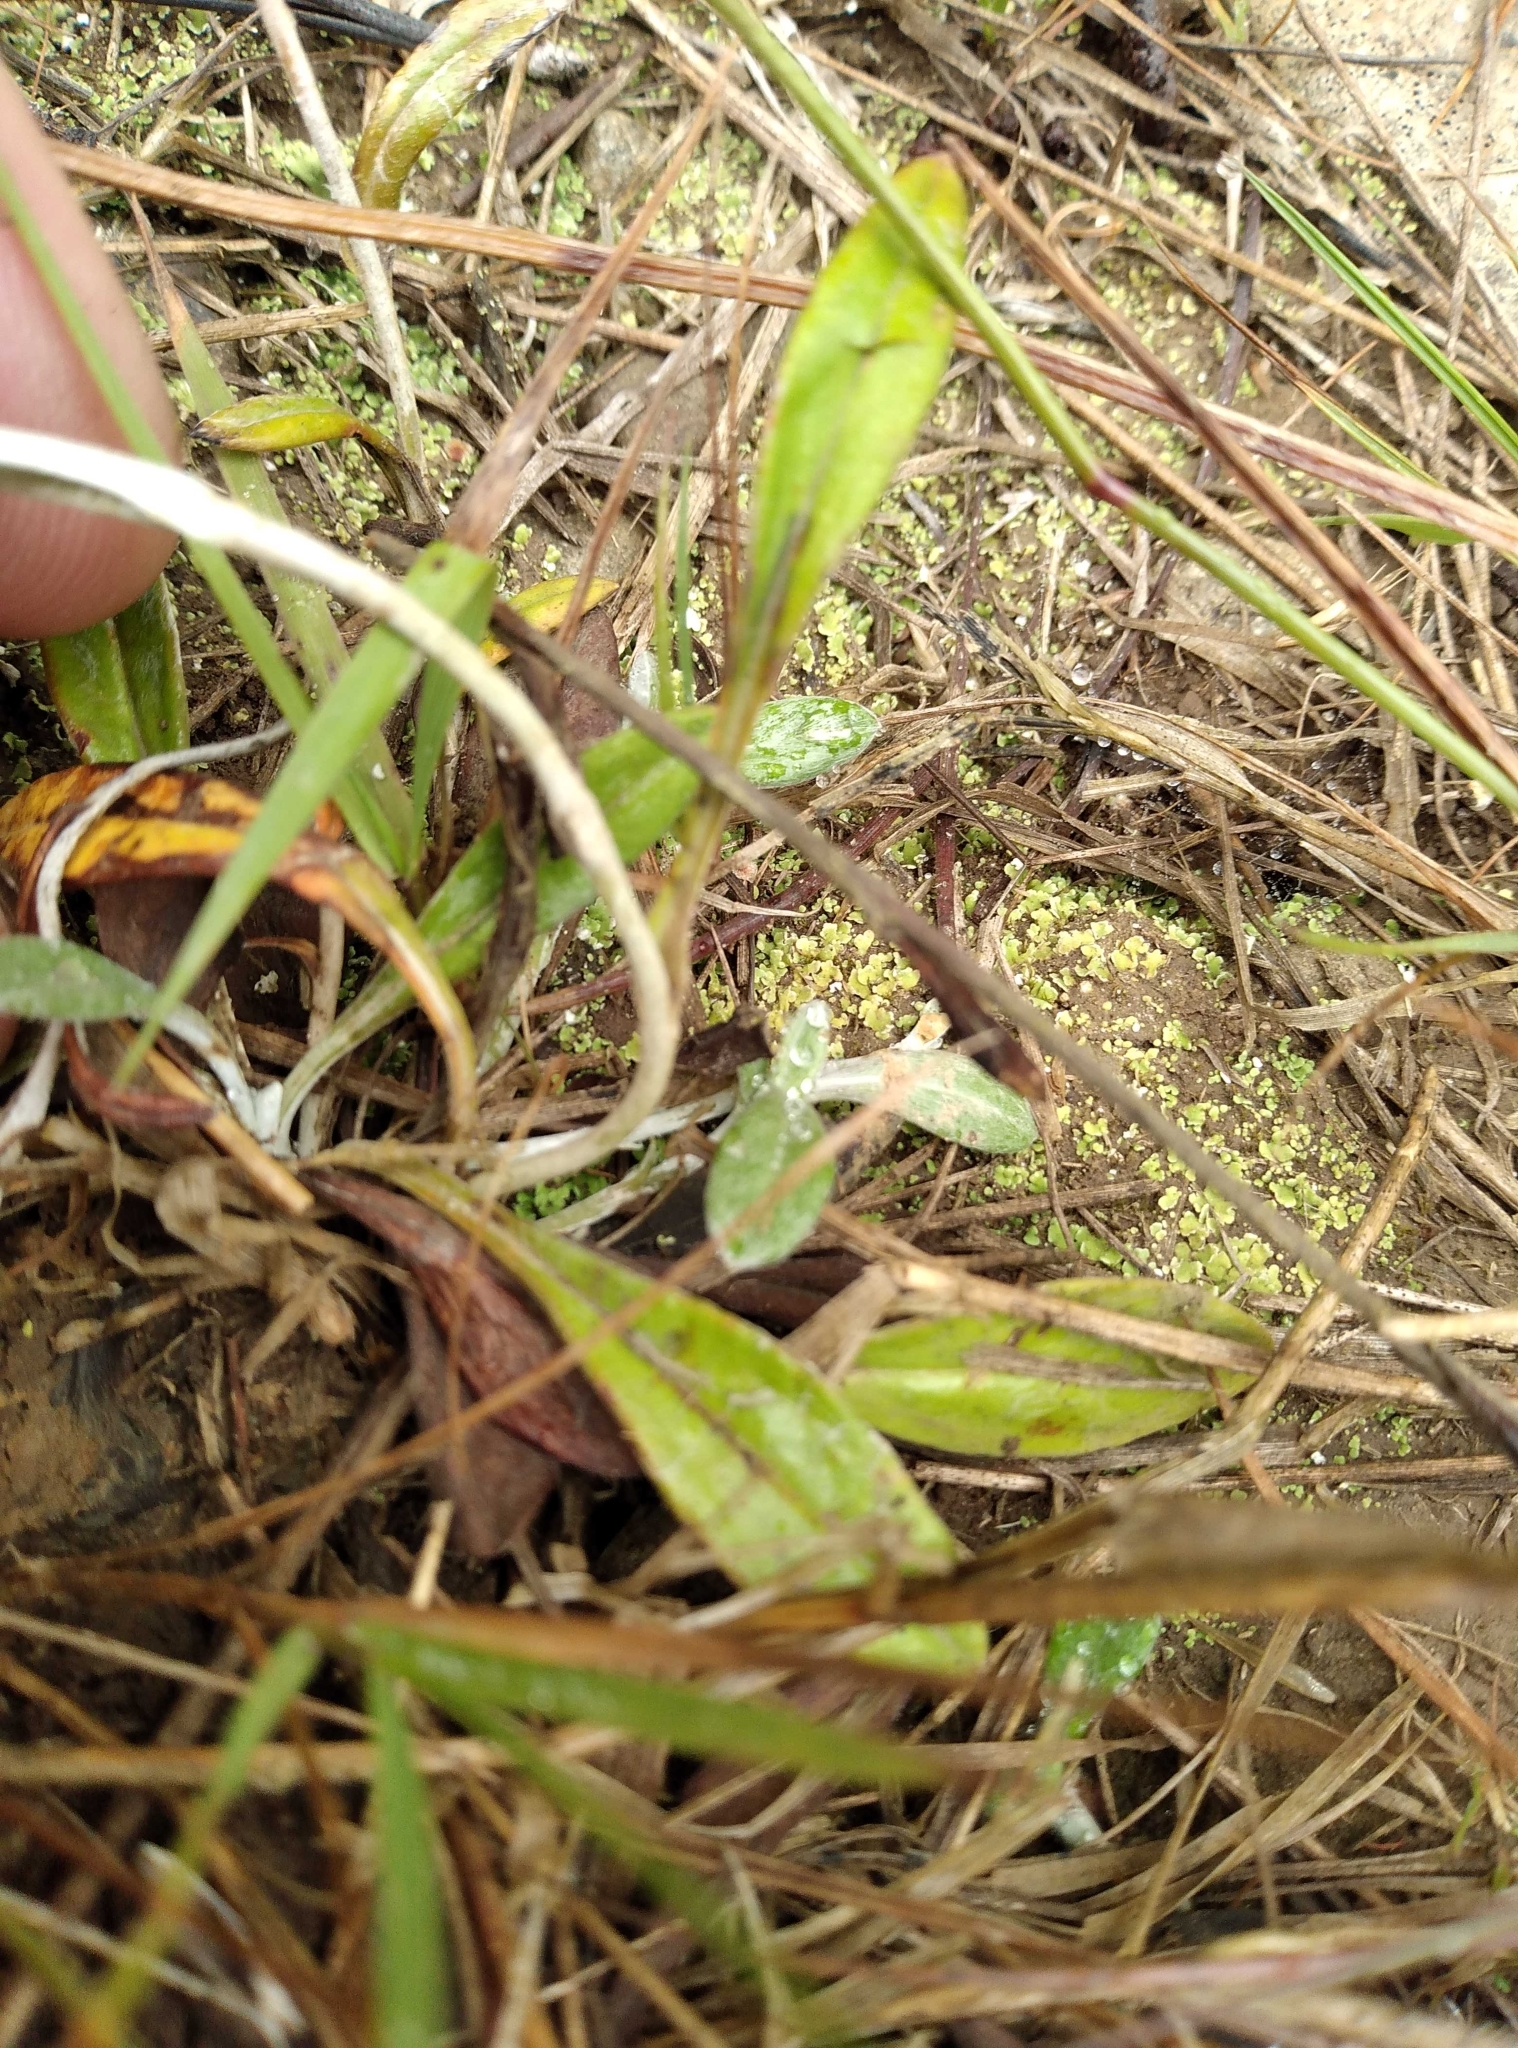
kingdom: Plantae
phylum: Tracheophyta
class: Magnoliopsida
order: Asterales
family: Asteraceae
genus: Euchiton
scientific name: Euchiton japonicus
